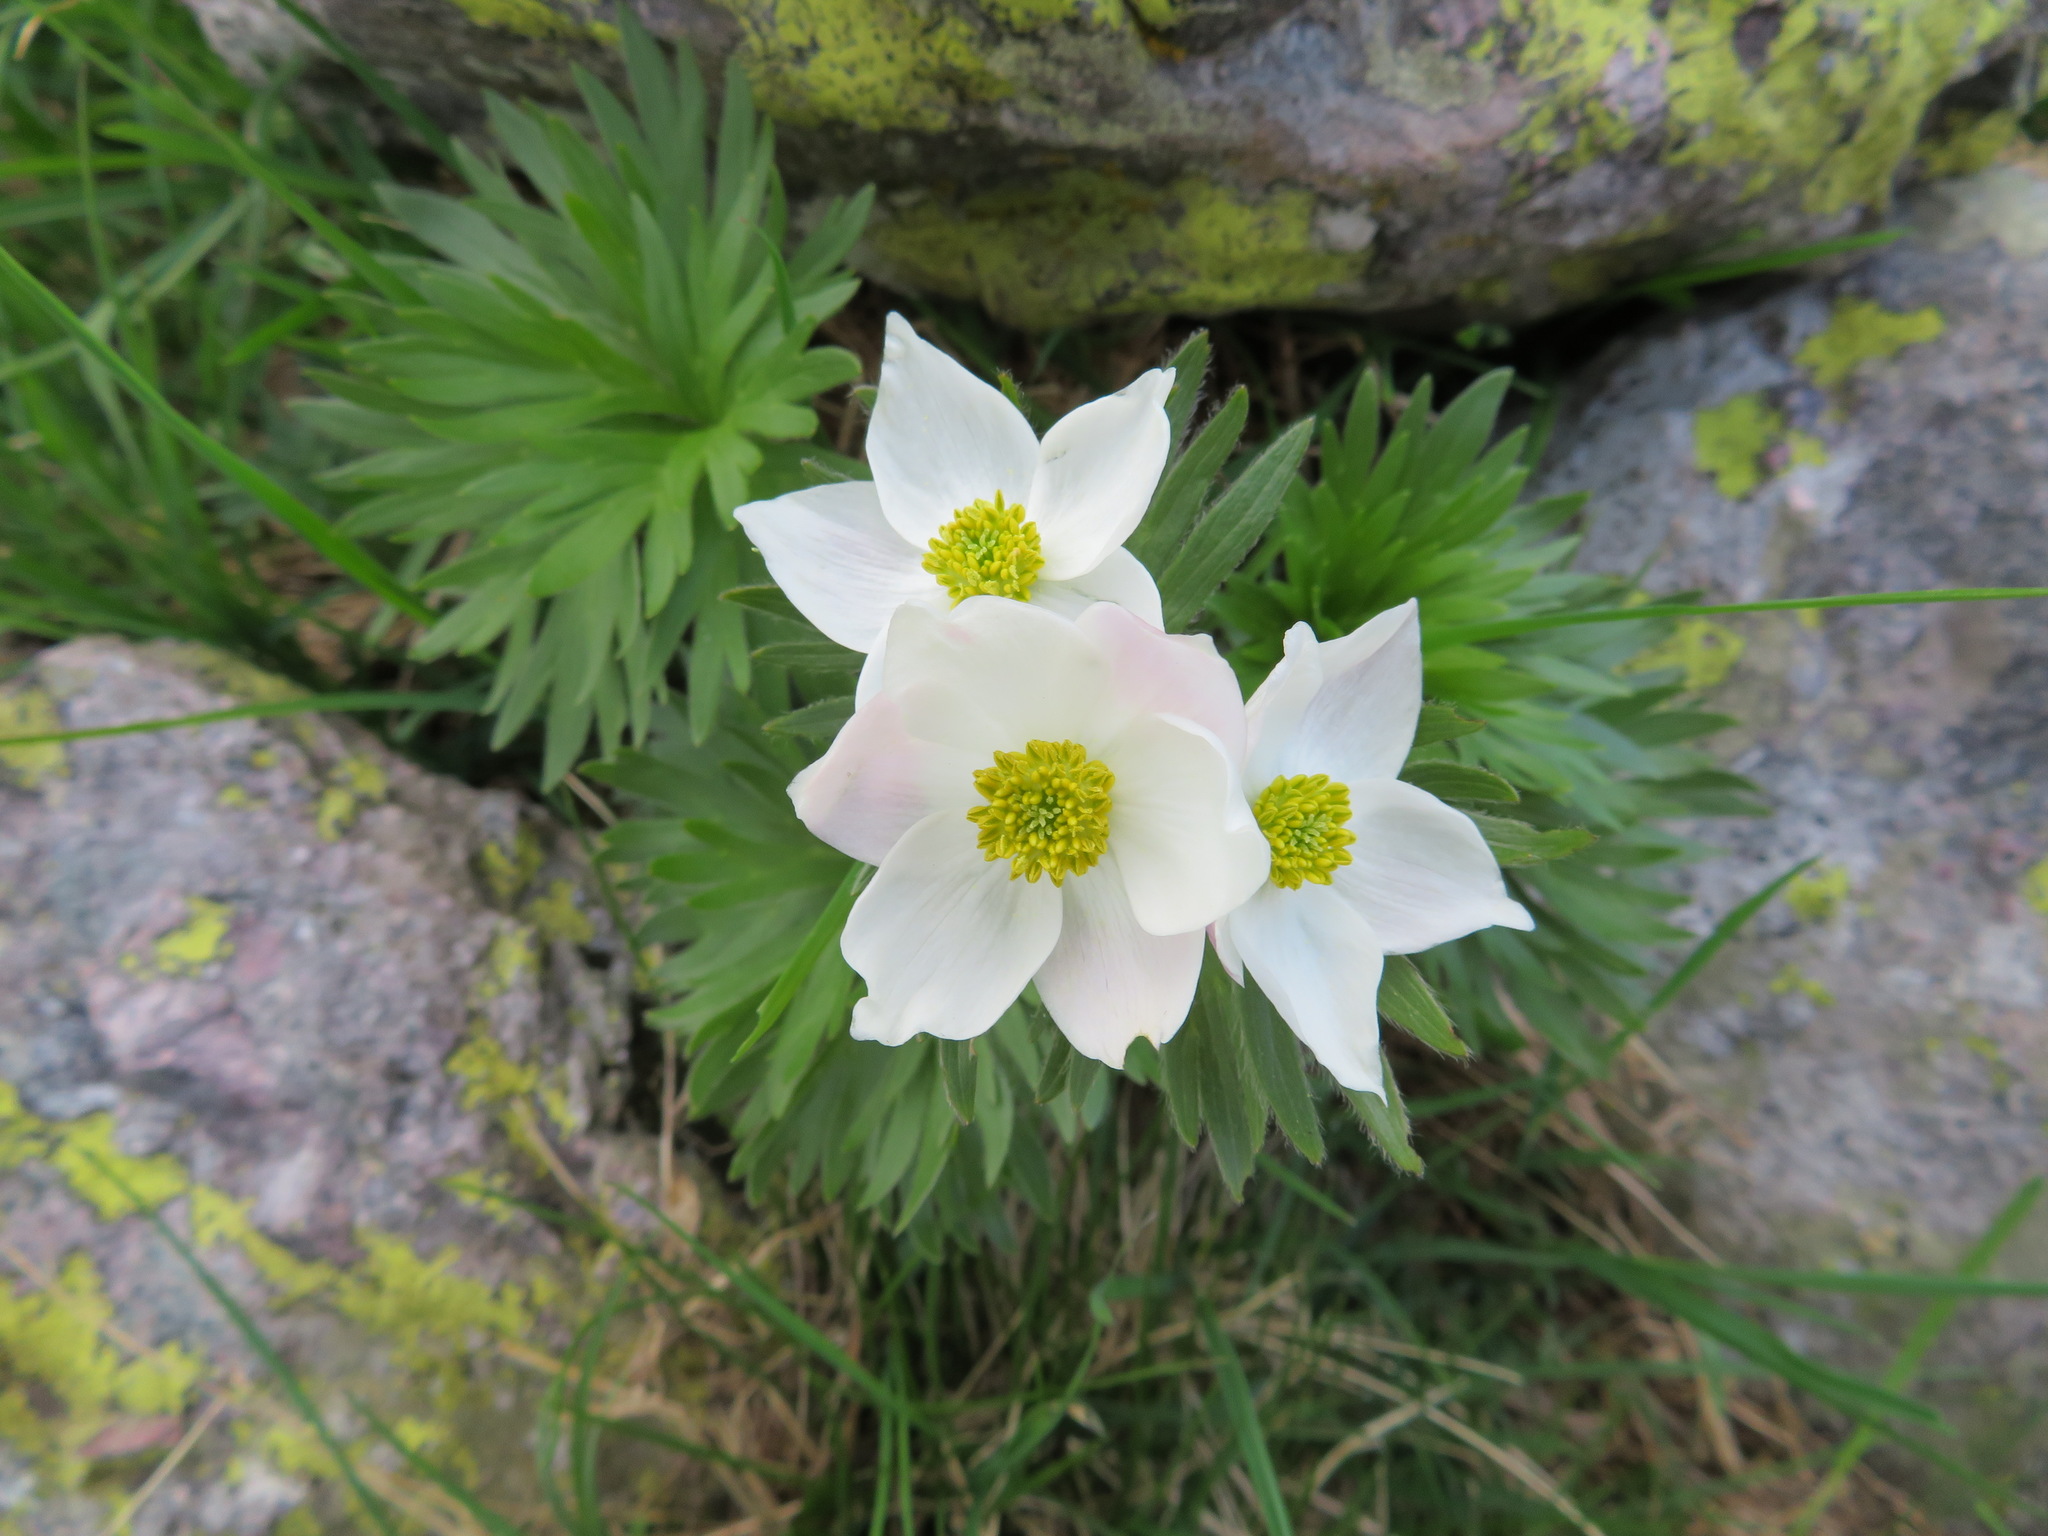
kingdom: Plantae
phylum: Tracheophyta
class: Magnoliopsida
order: Ranunculales
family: Ranunculaceae
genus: Anemonastrum
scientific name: Anemonastrum narcissiflorum
